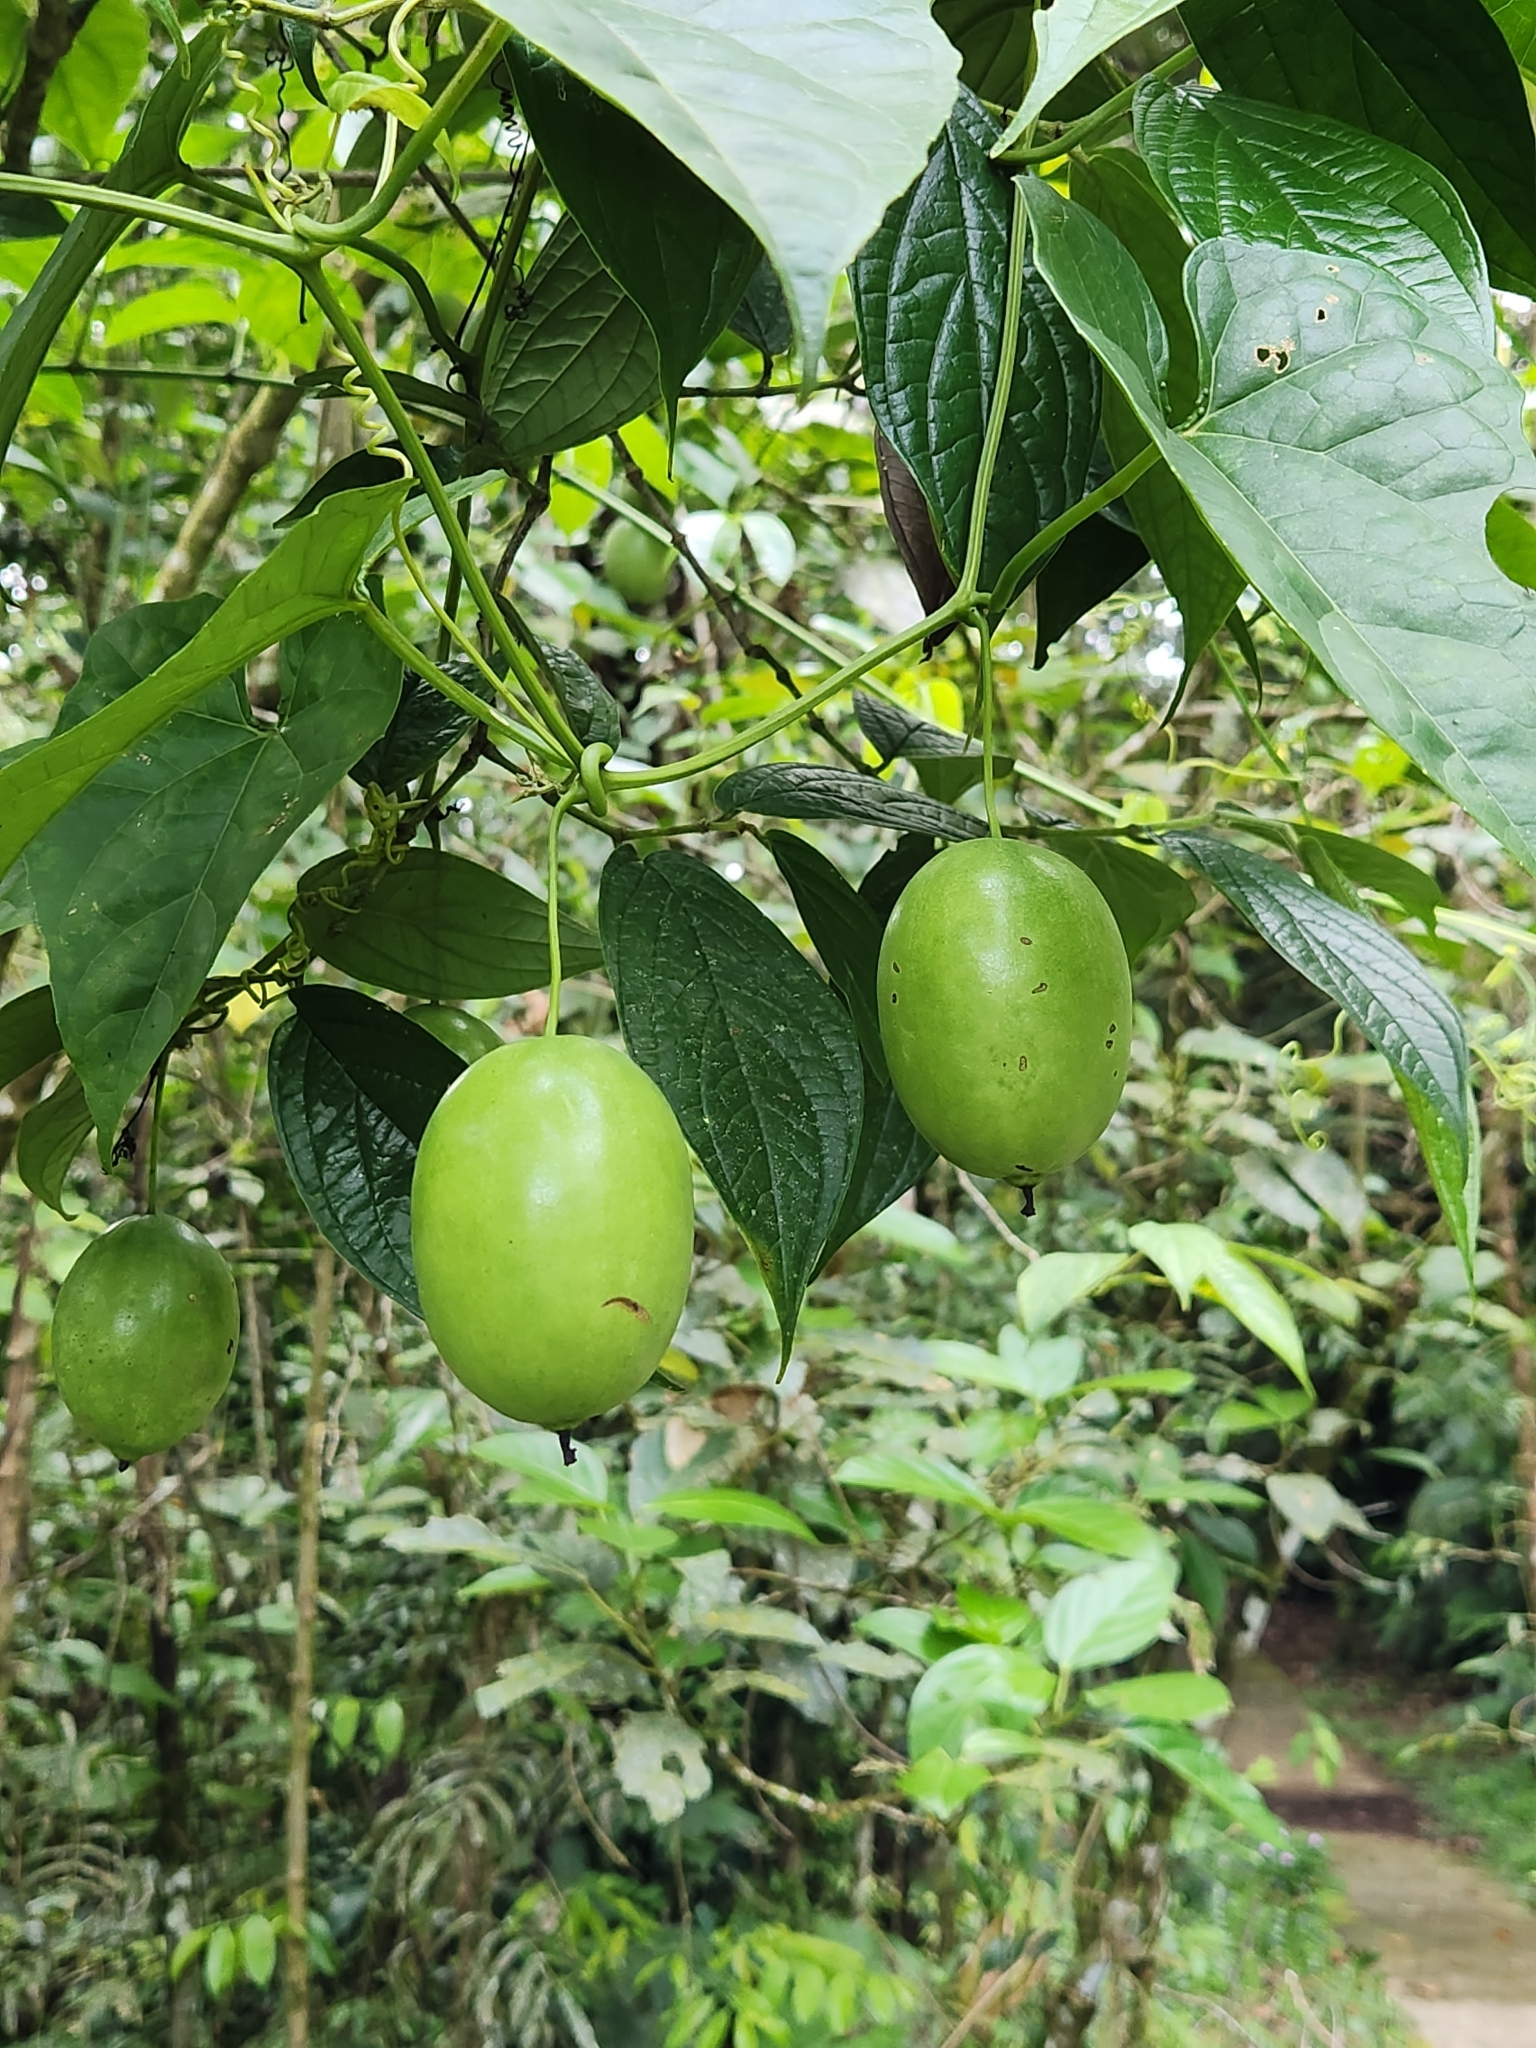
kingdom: Plantae
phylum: Tracheophyta
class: Magnoliopsida
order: Cucurbitales
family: Cucurbitaceae
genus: Melothria
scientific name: Melothria dulcis
